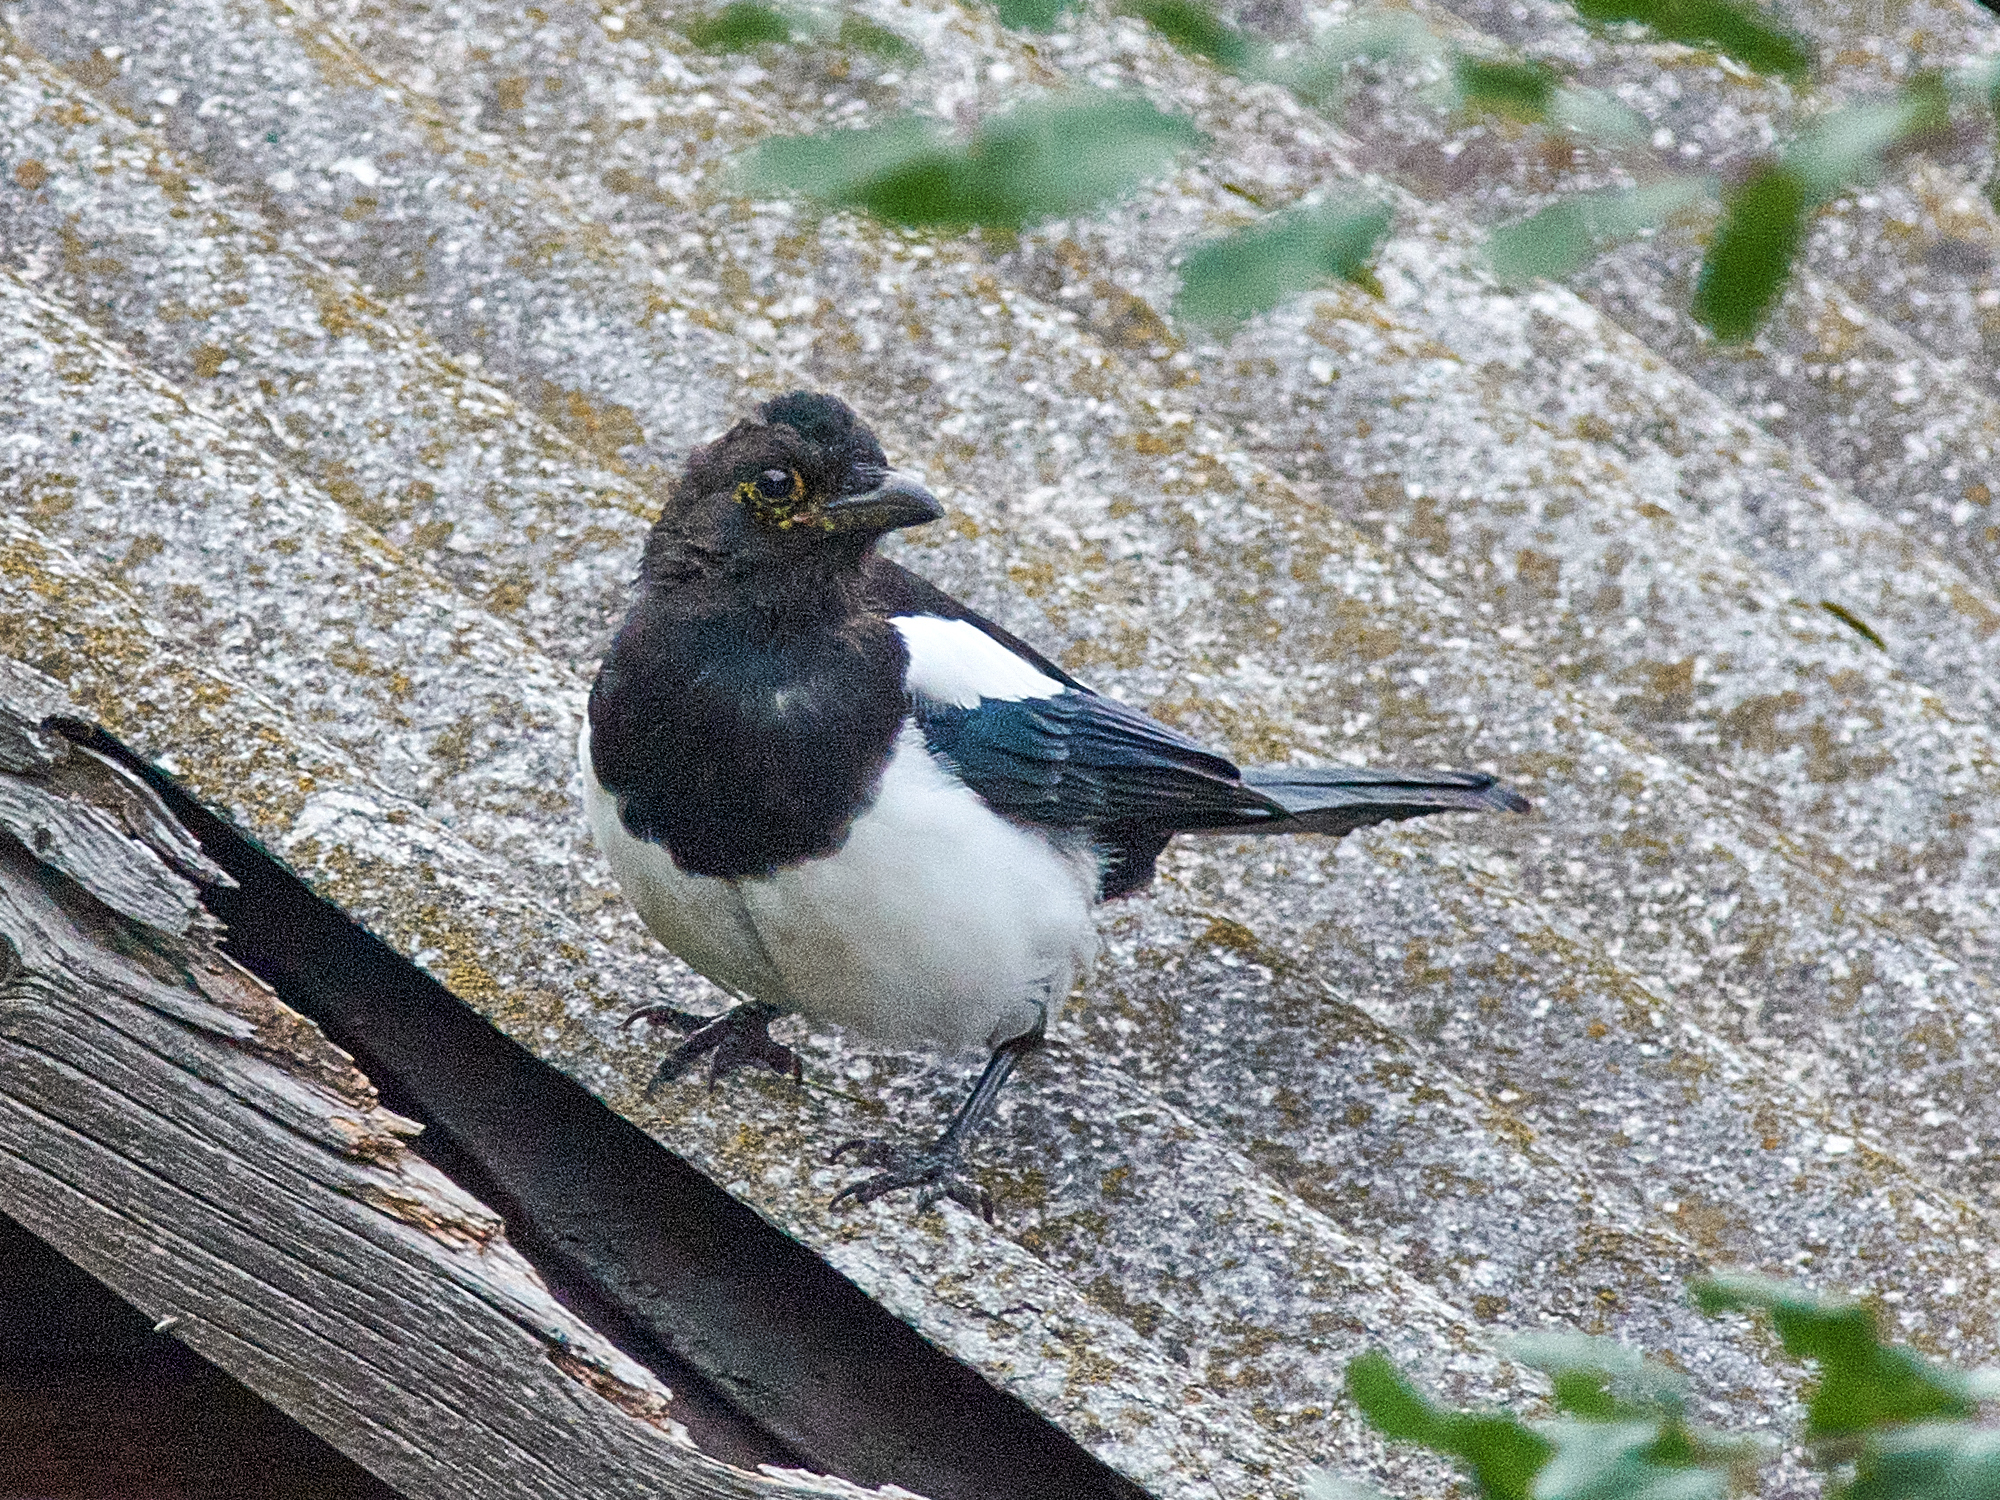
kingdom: Animalia
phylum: Chordata
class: Aves
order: Passeriformes
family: Corvidae
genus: Pica
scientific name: Pica pica
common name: Eurasian magpie
